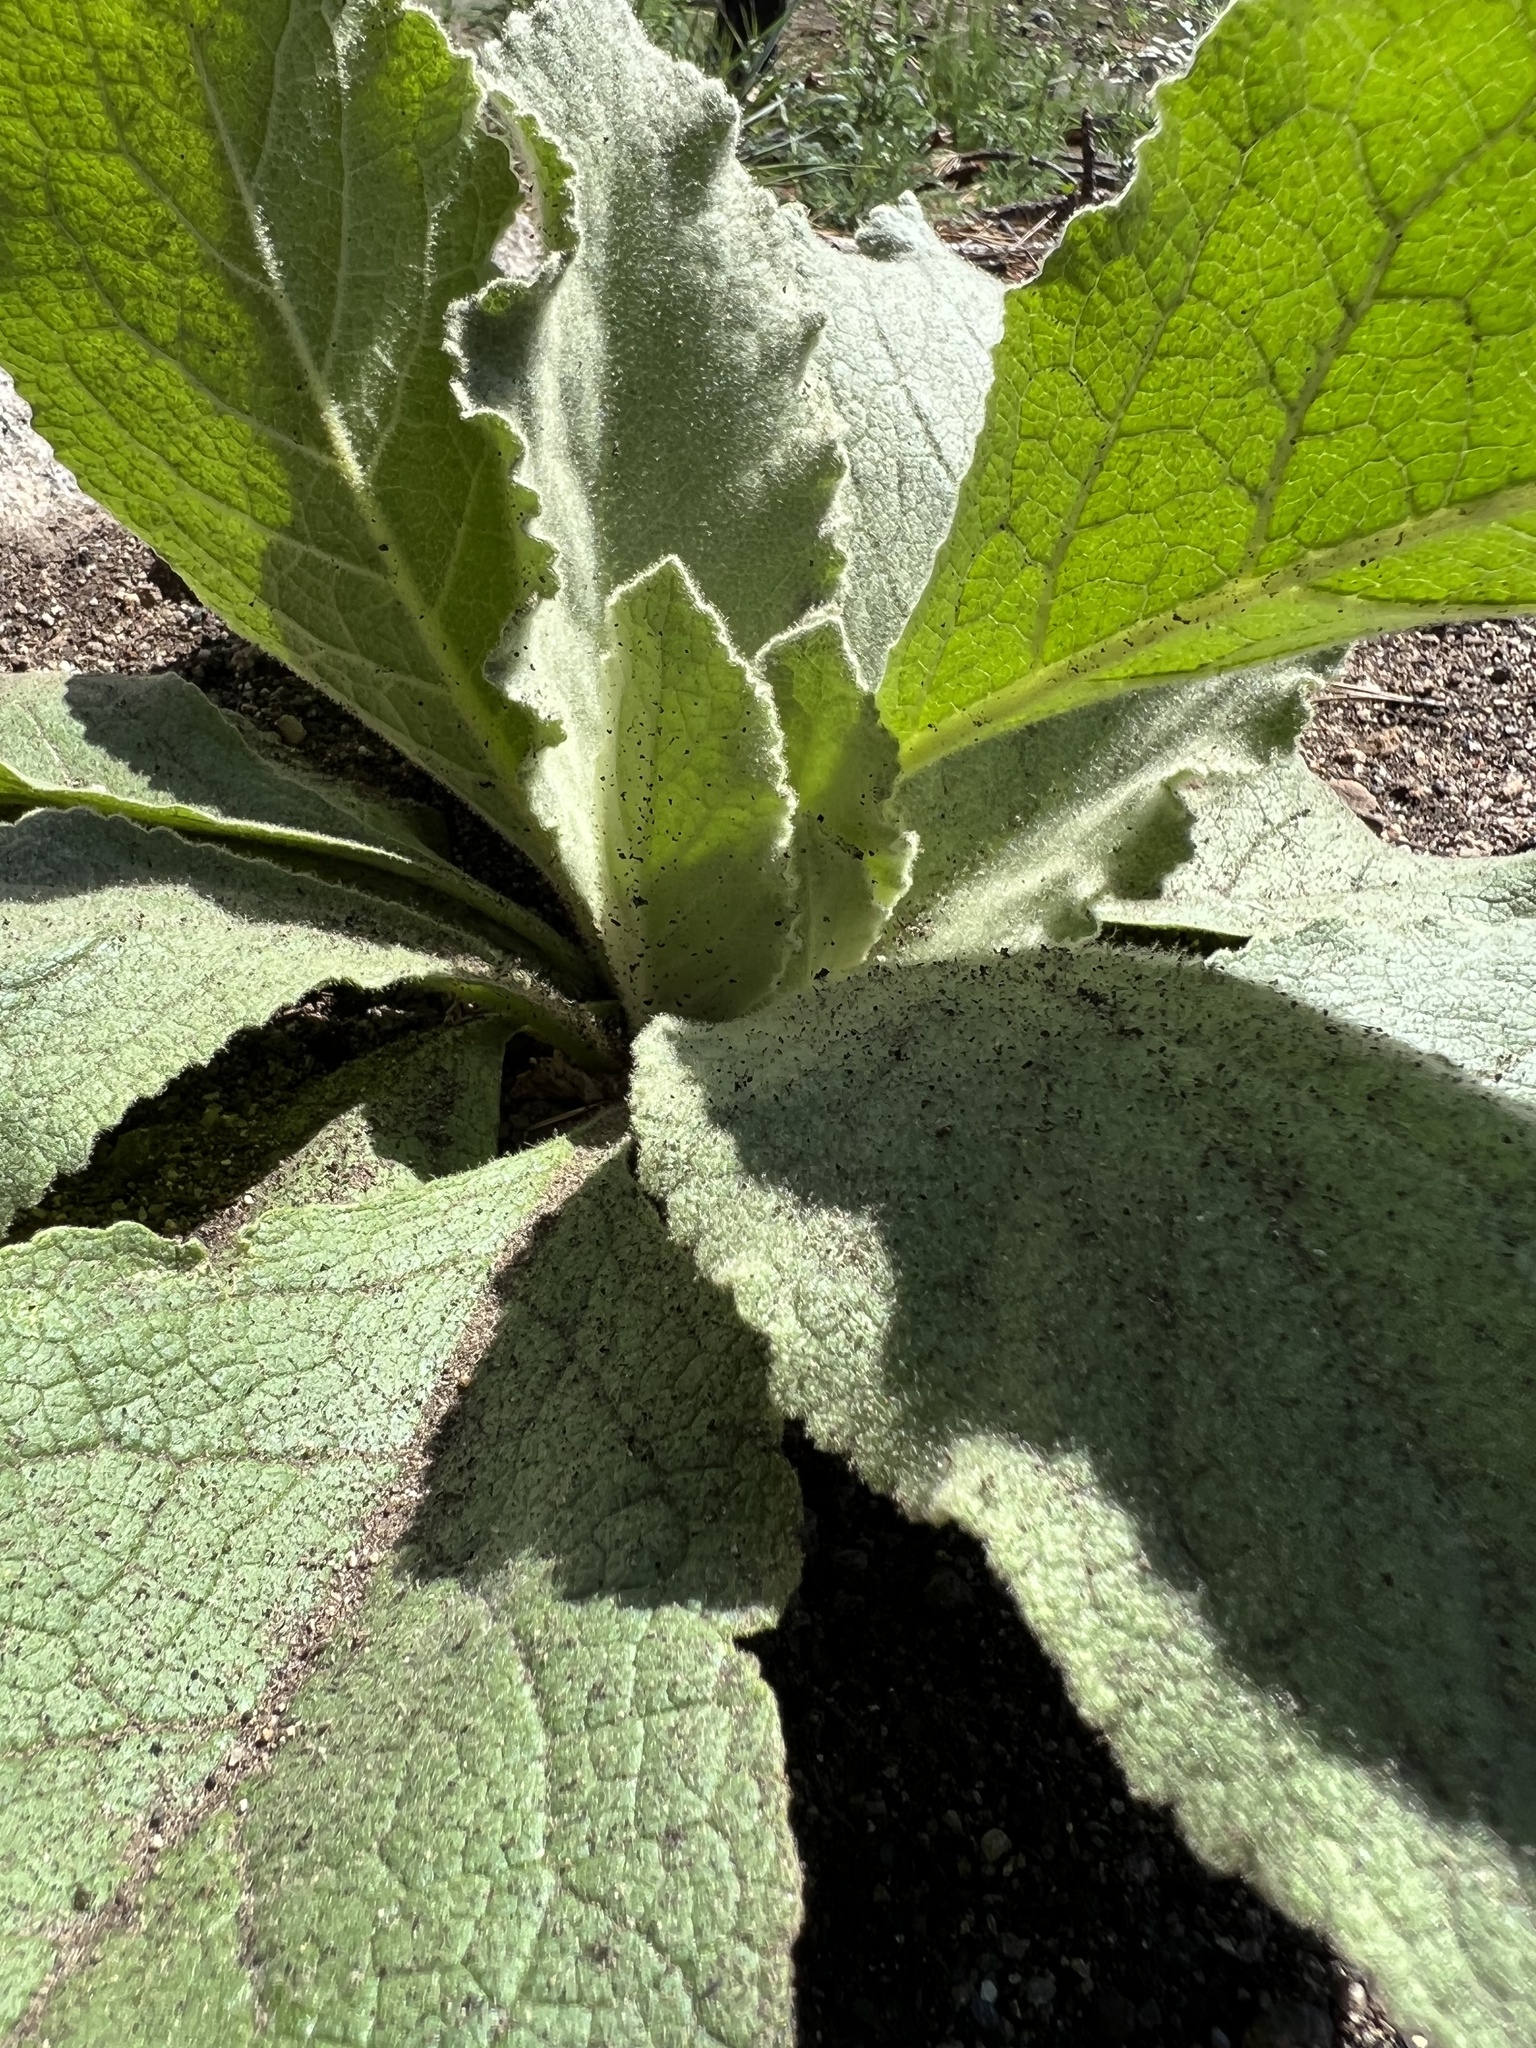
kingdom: Plantae
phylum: Tracheophyta
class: Magnoliopsida
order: Lamiales
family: Scrophulariaceae
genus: Verbascum
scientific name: Verbascum thapsus
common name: Common mullein
